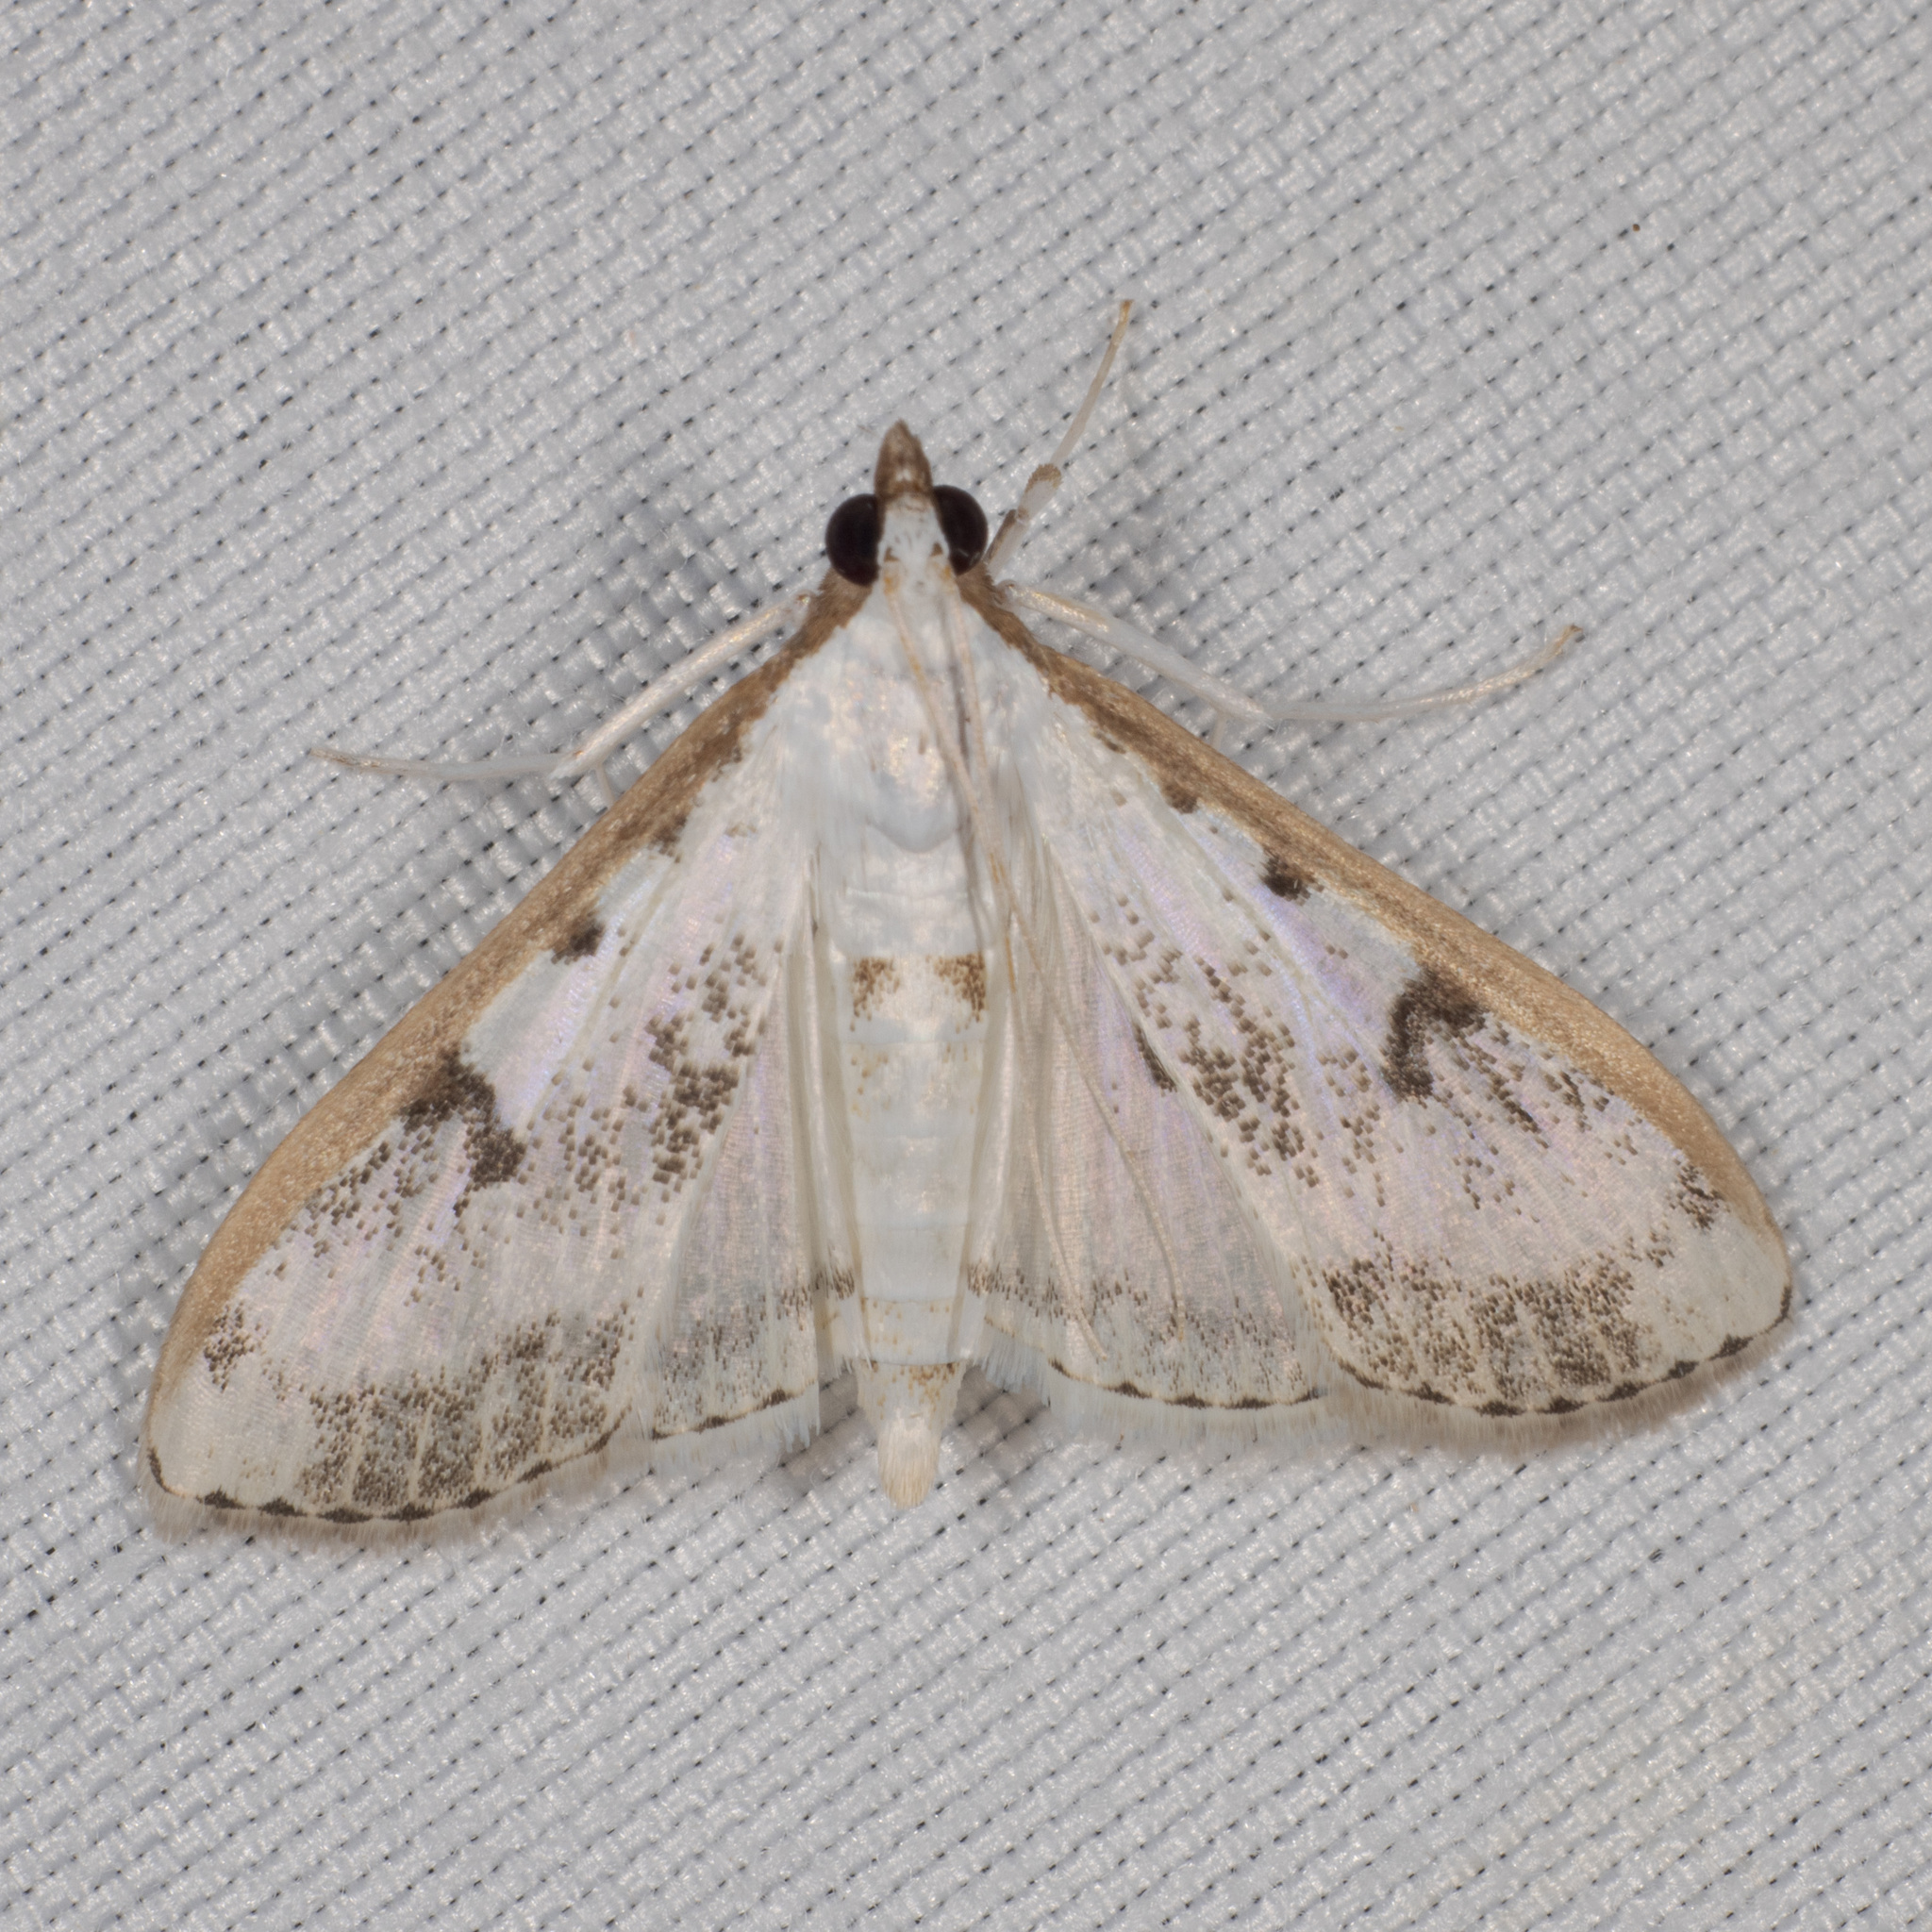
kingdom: Animalia
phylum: Arthropoda
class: Insecta
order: Lepidoptera
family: Crambidae
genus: Palpita
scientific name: Palpita gracilalis
